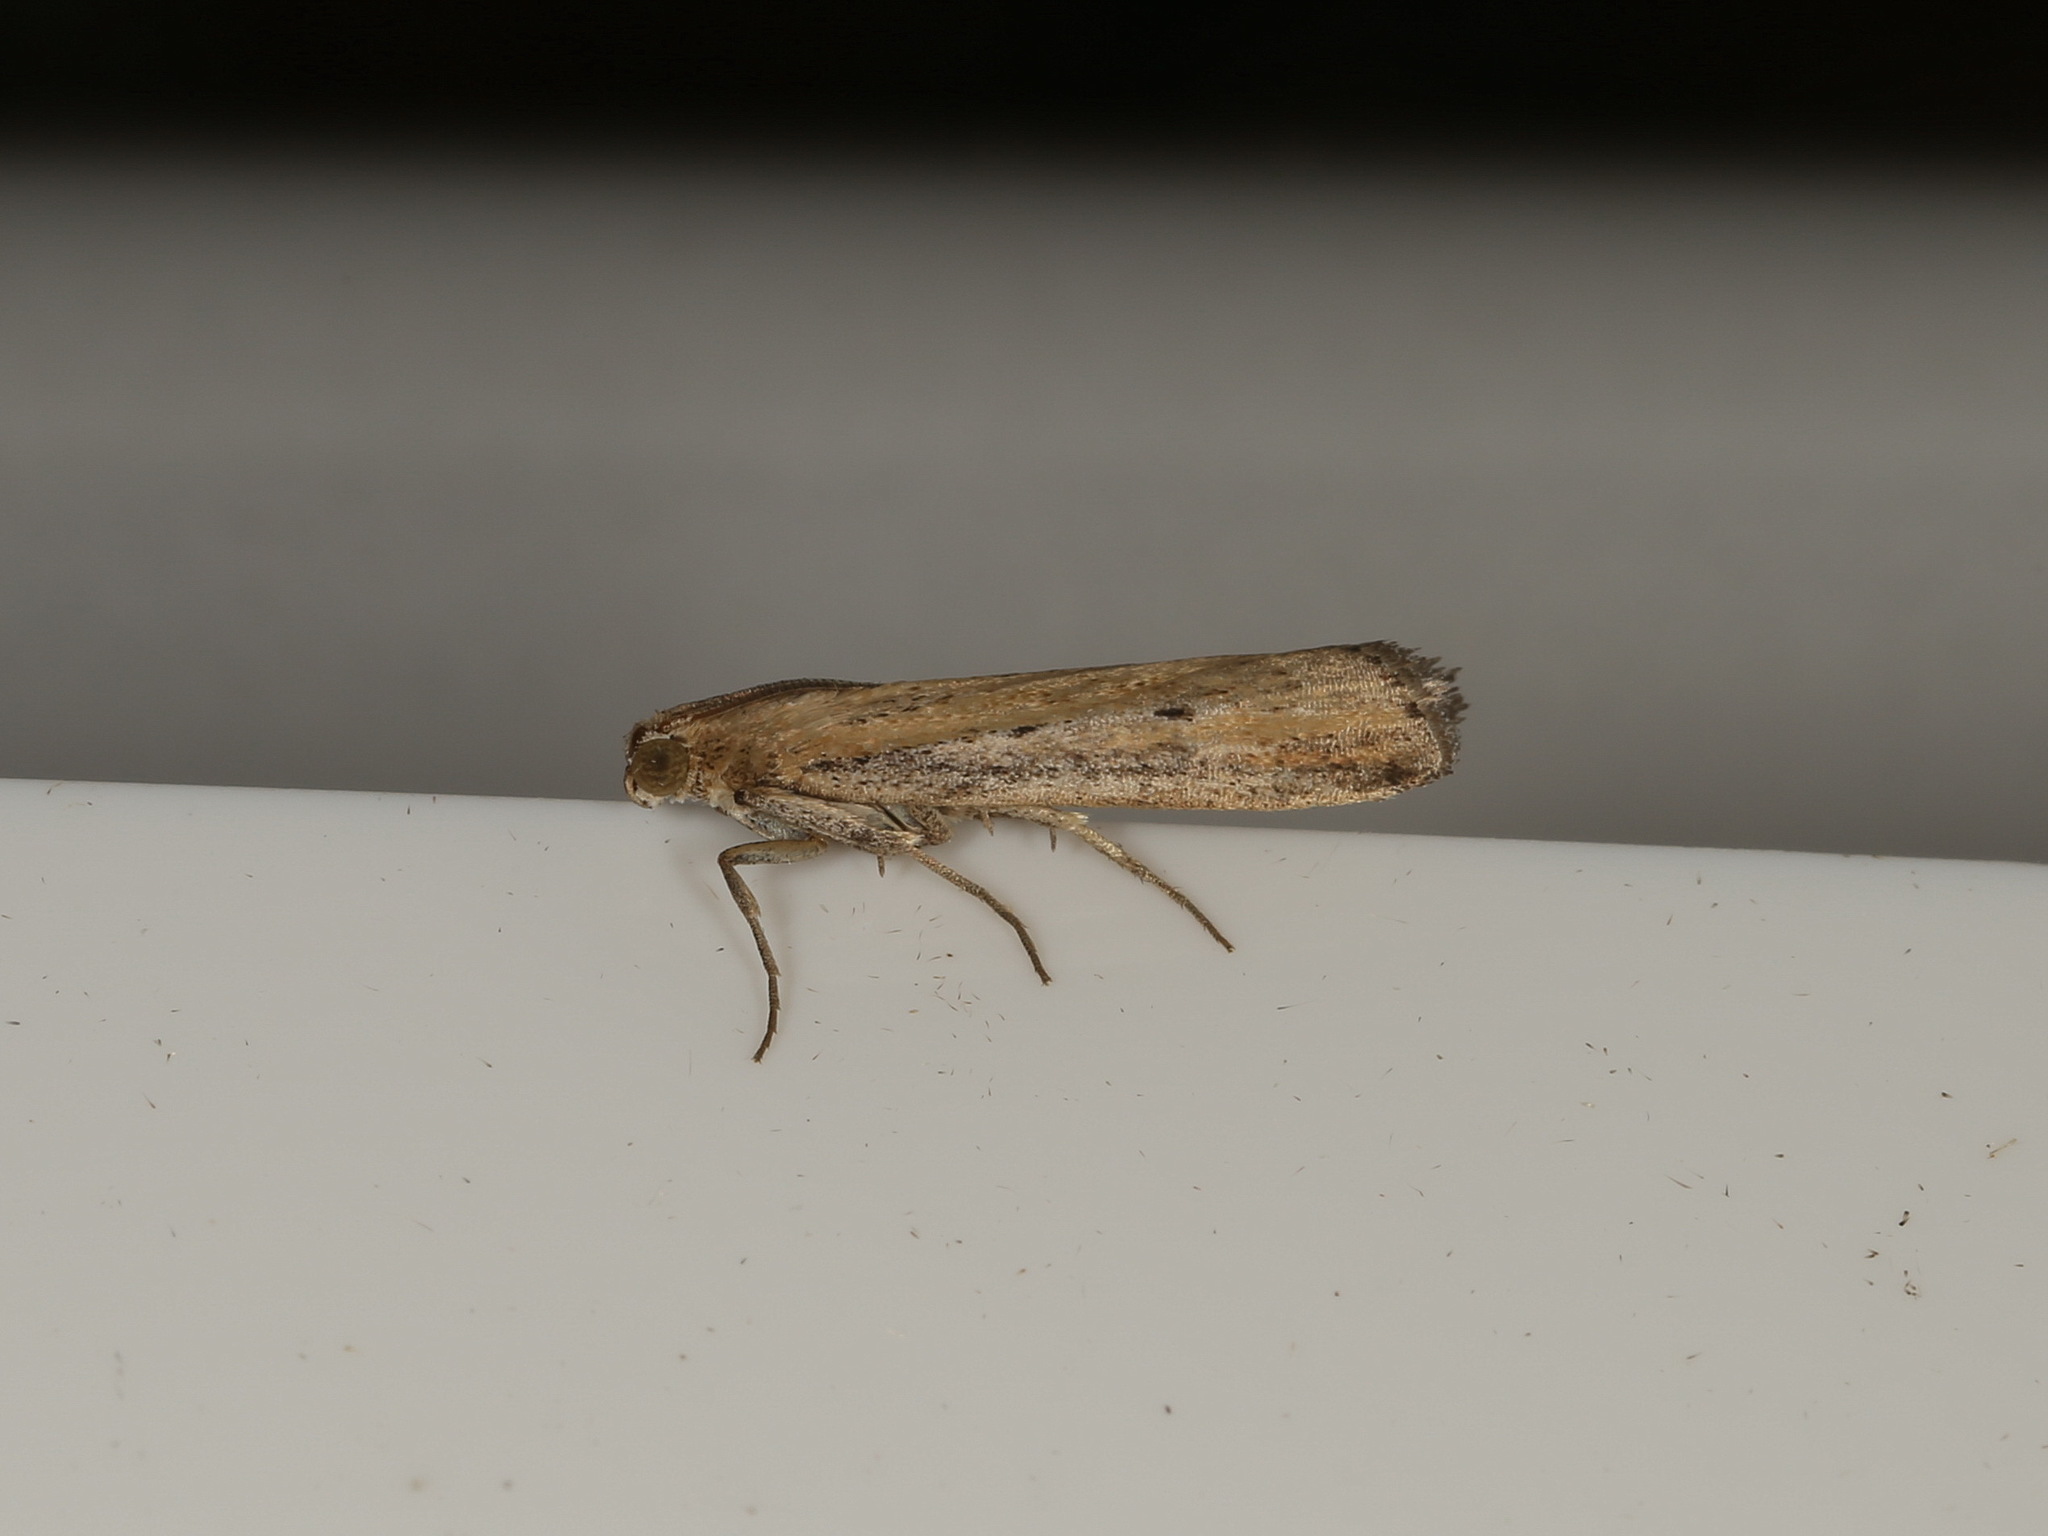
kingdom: Animalia
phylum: Arthropoda
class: Insecta
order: Lepidoptera
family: Pyralidae
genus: Faveria
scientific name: Faveria tritalis
